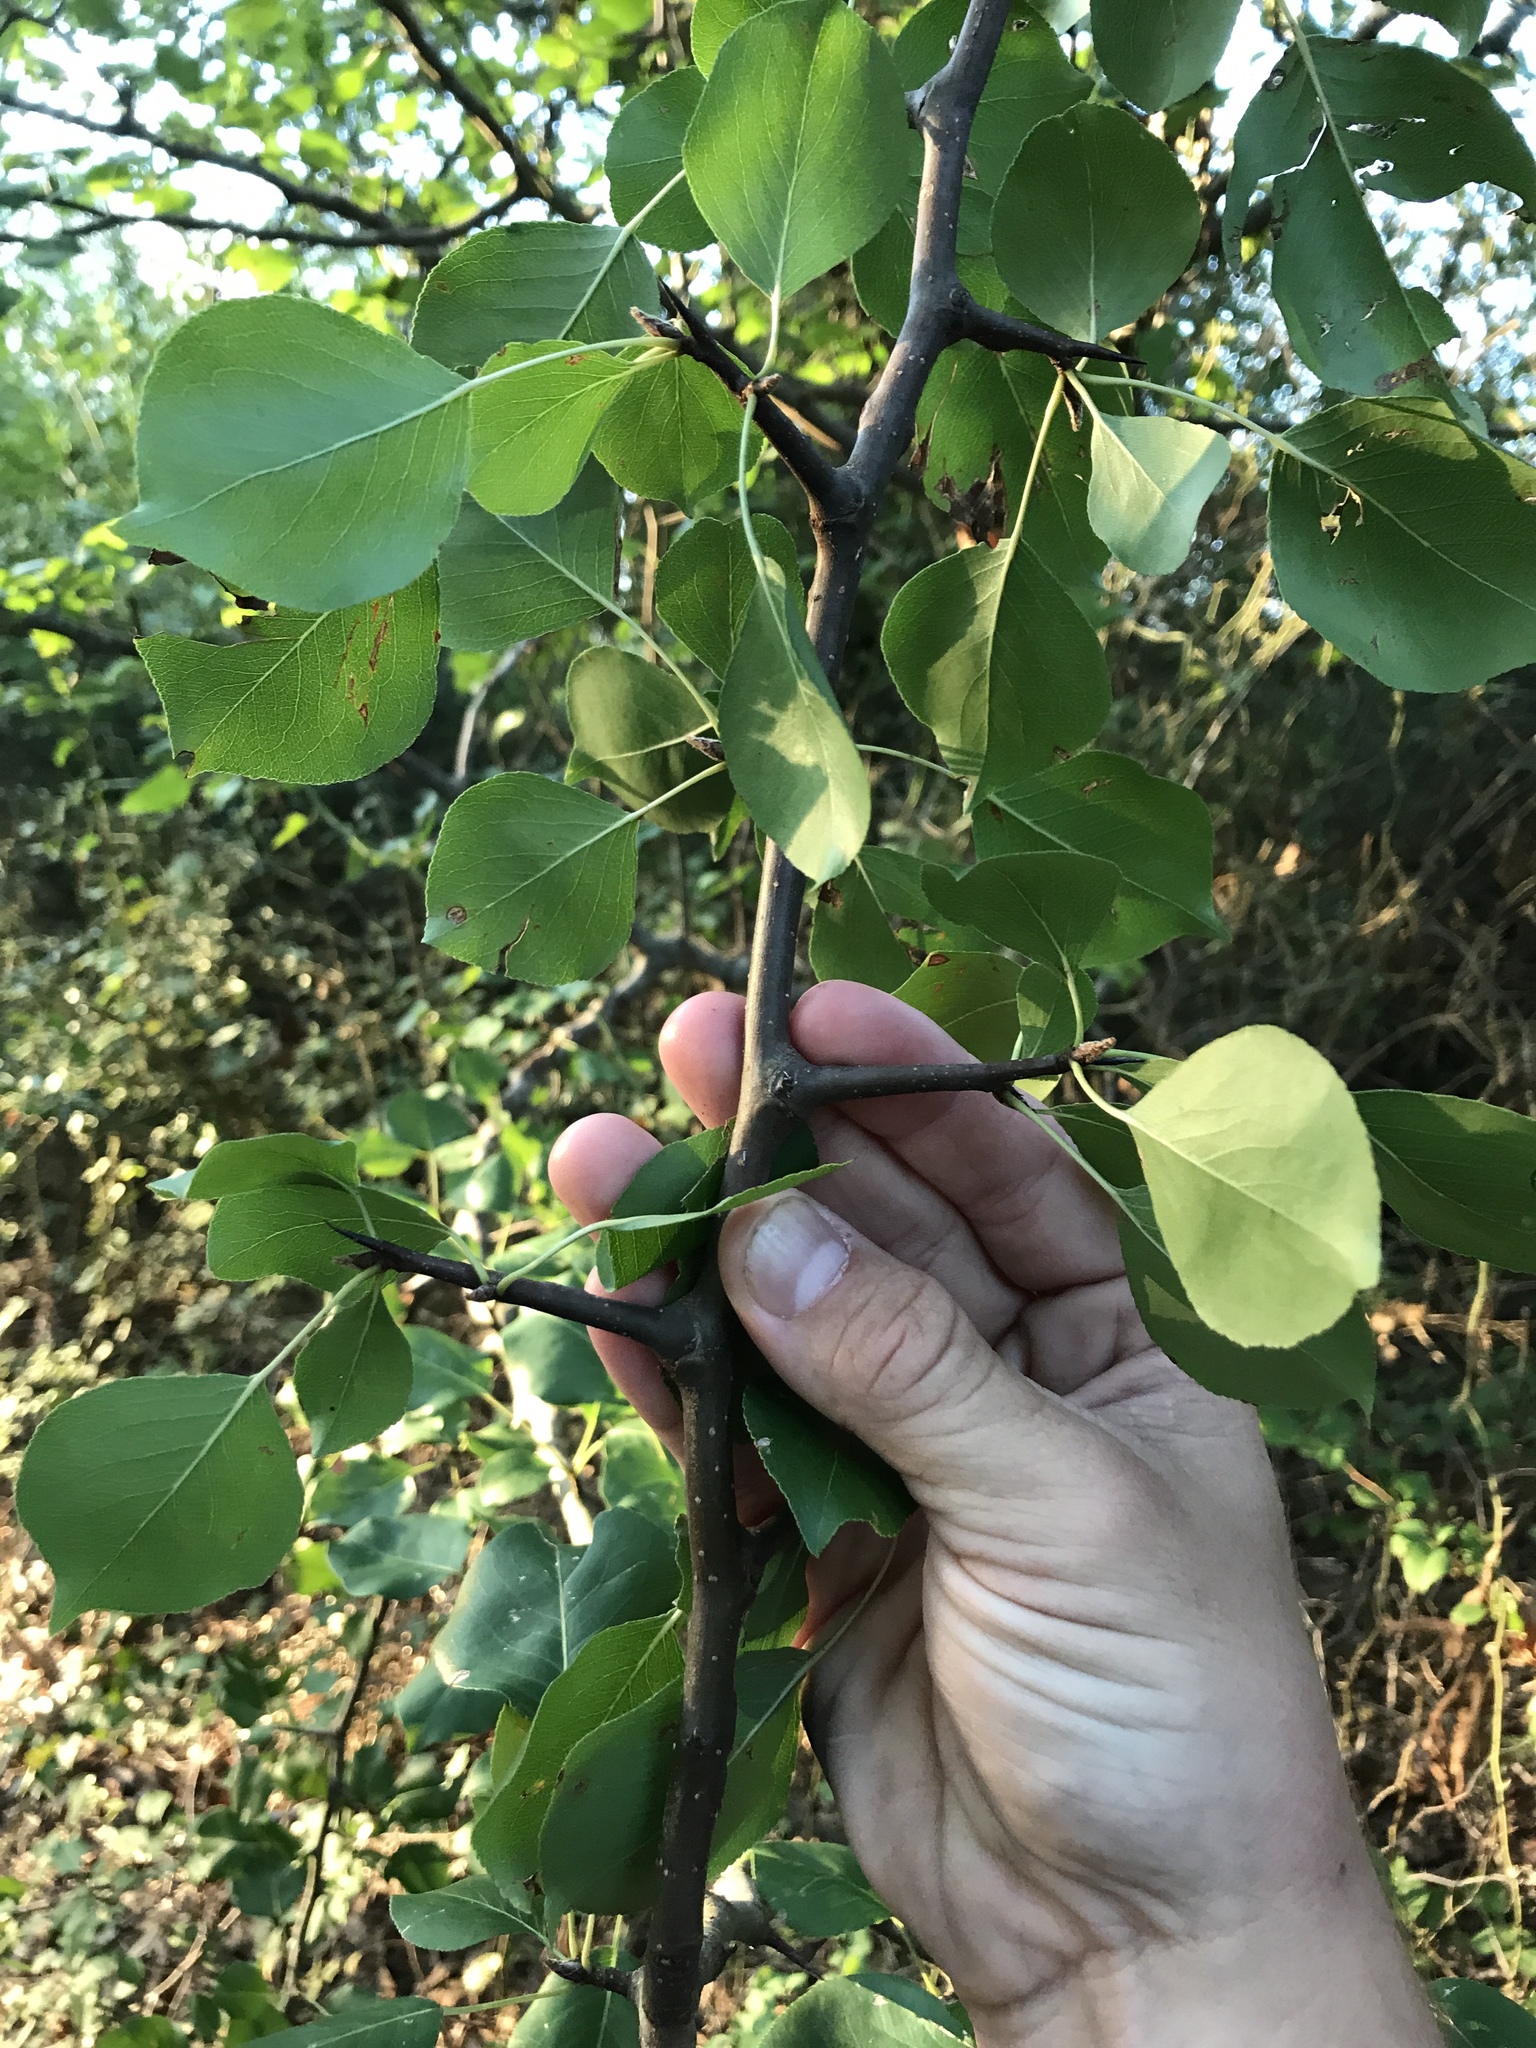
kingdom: Plantae
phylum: Tracheophyta
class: Magnoliopsida
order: Rosales
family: Rosaceae
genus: Pyrus
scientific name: Pyrus calleryana
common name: Callery pear
